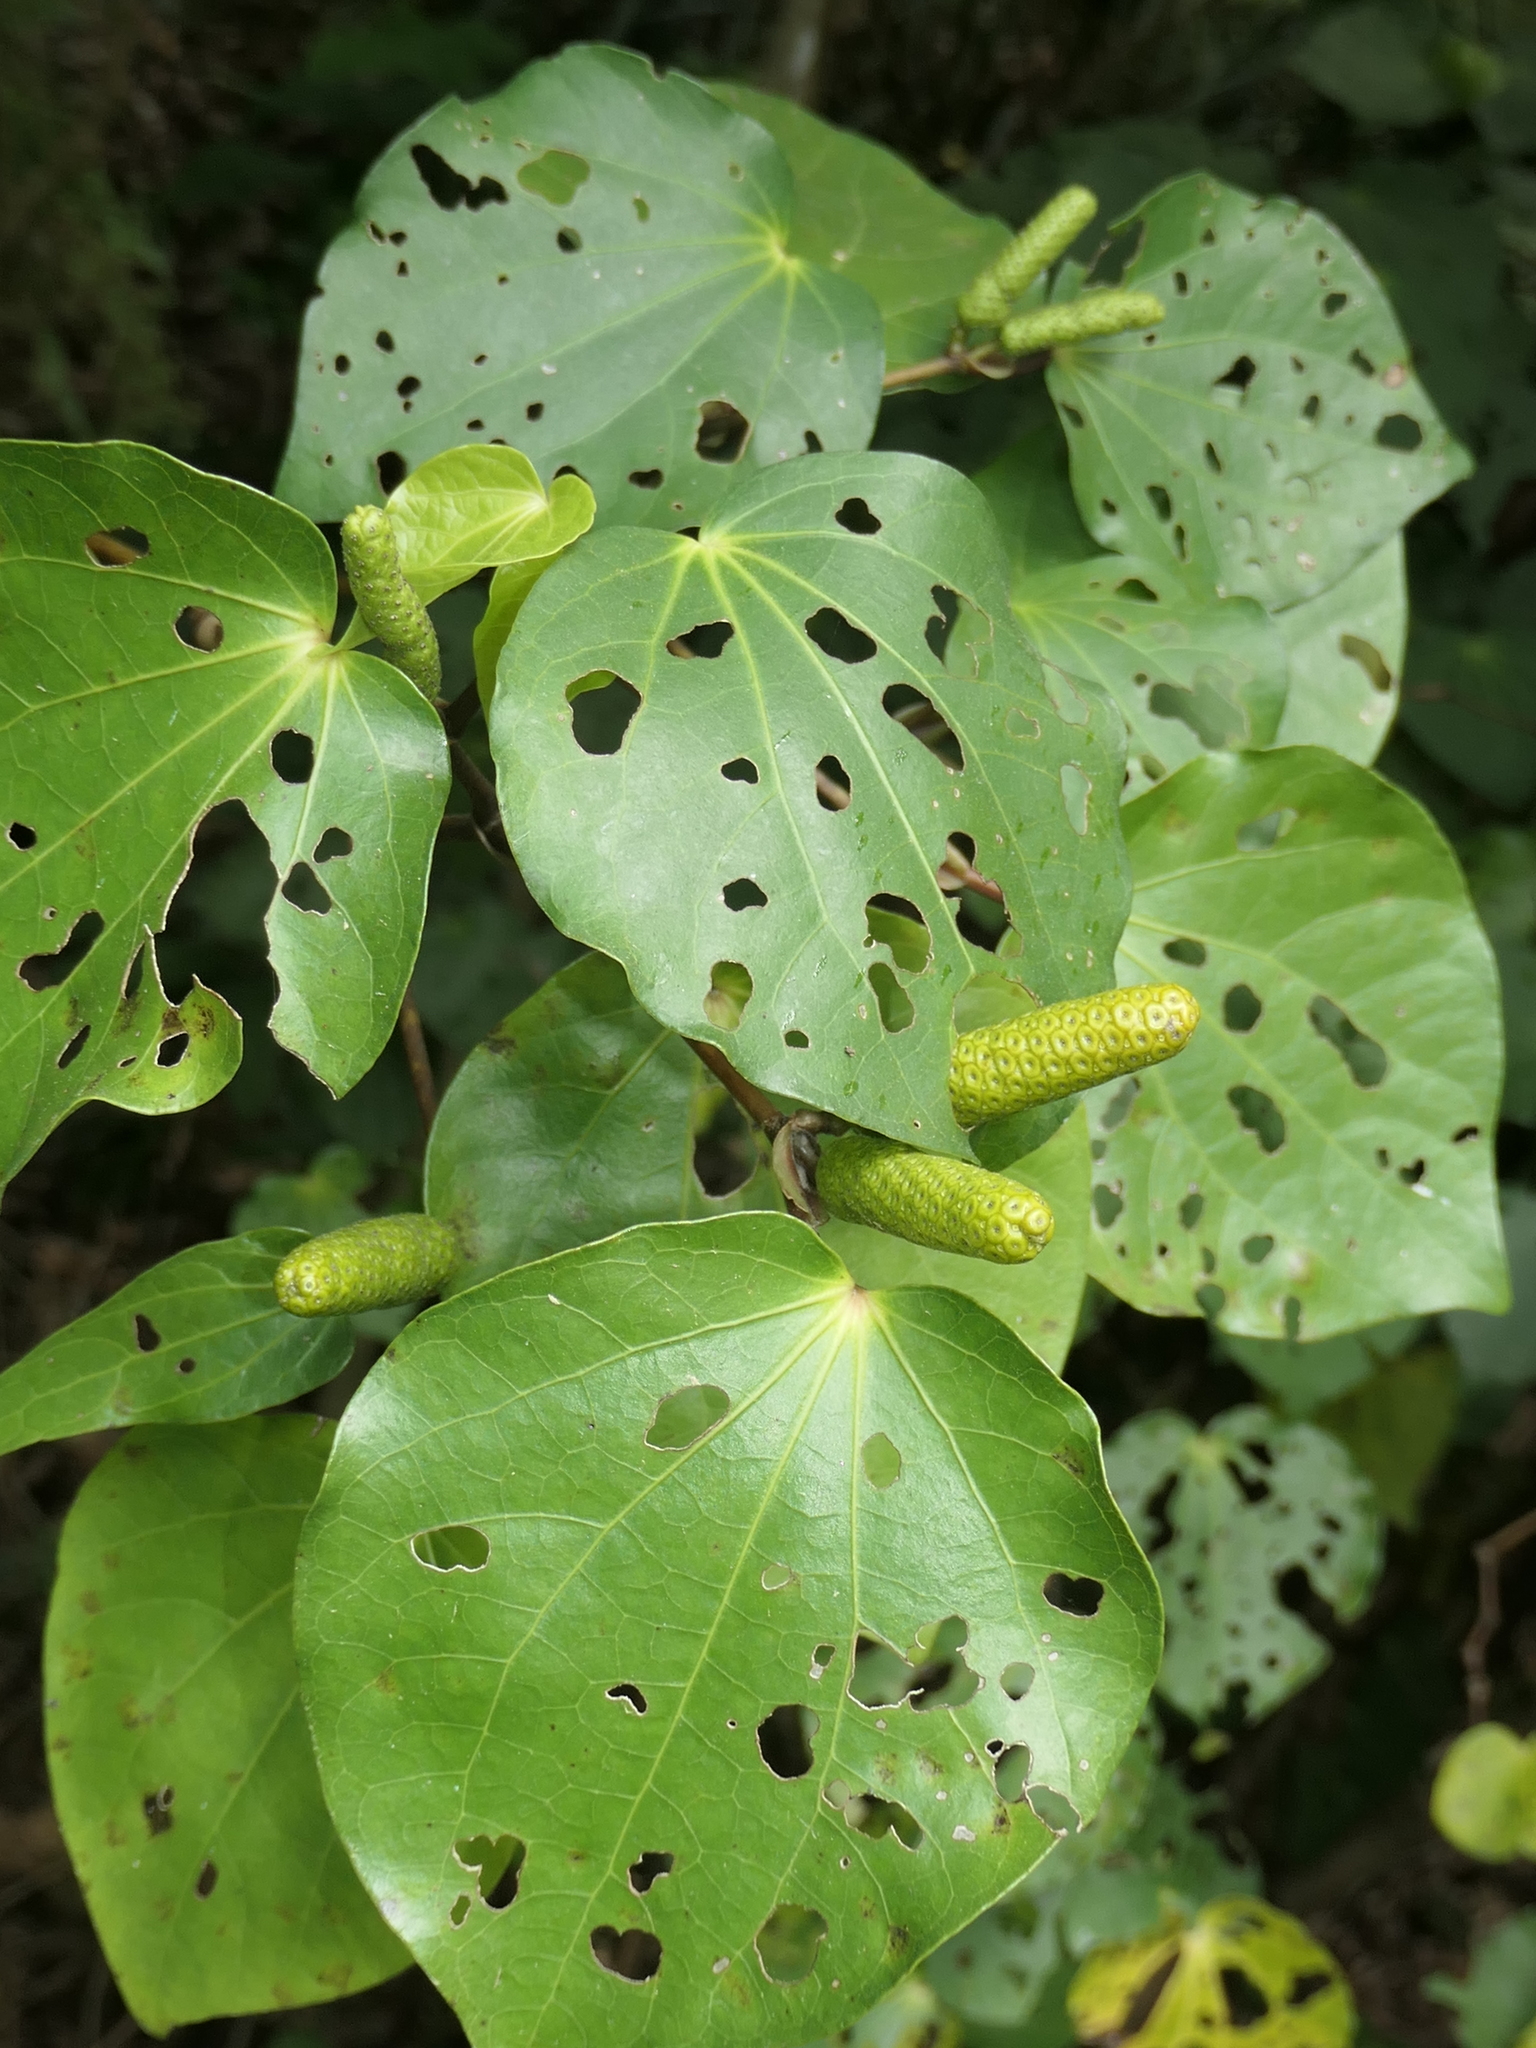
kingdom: Plantae
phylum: Tracheophyta
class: Magnoliopsida
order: Piperales
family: Piperaceae
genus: Macropiper
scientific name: Macropiper excelsum
